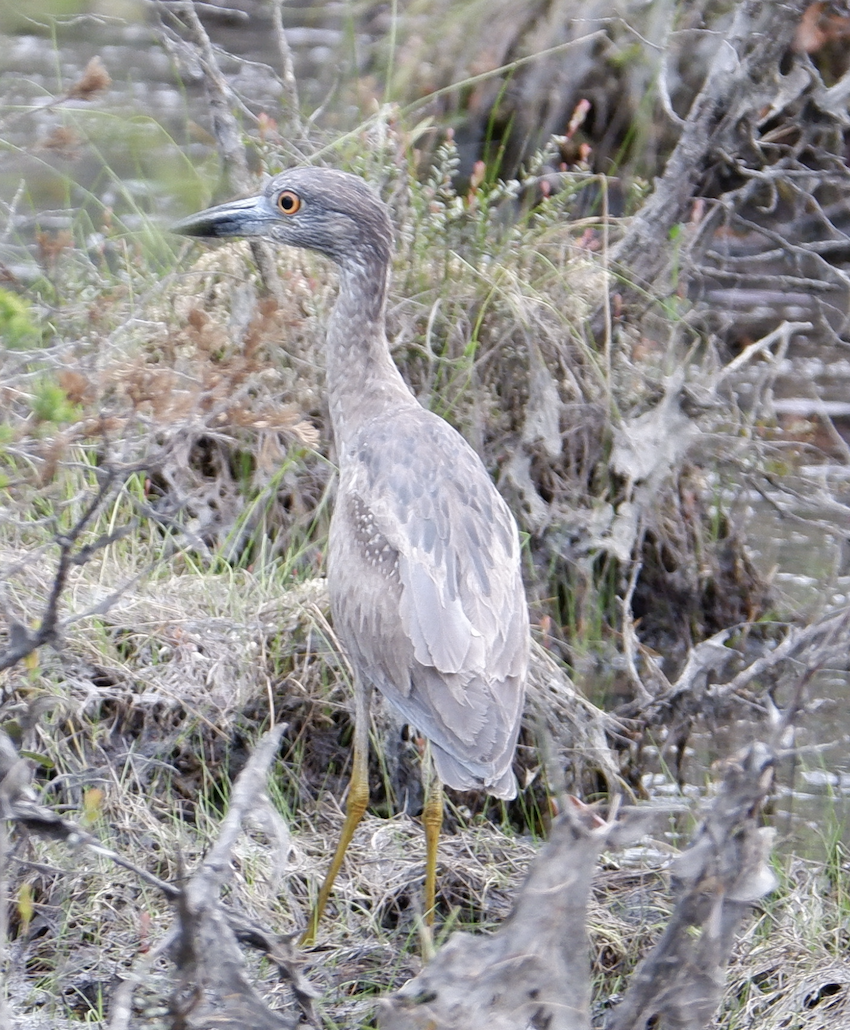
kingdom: Animalia
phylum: Chordata
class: Aves
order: Pelecaniformes
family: Ardeidae
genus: Nyctanassa
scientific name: Nyctanassa violacea
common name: Yellow-crowned night heron
